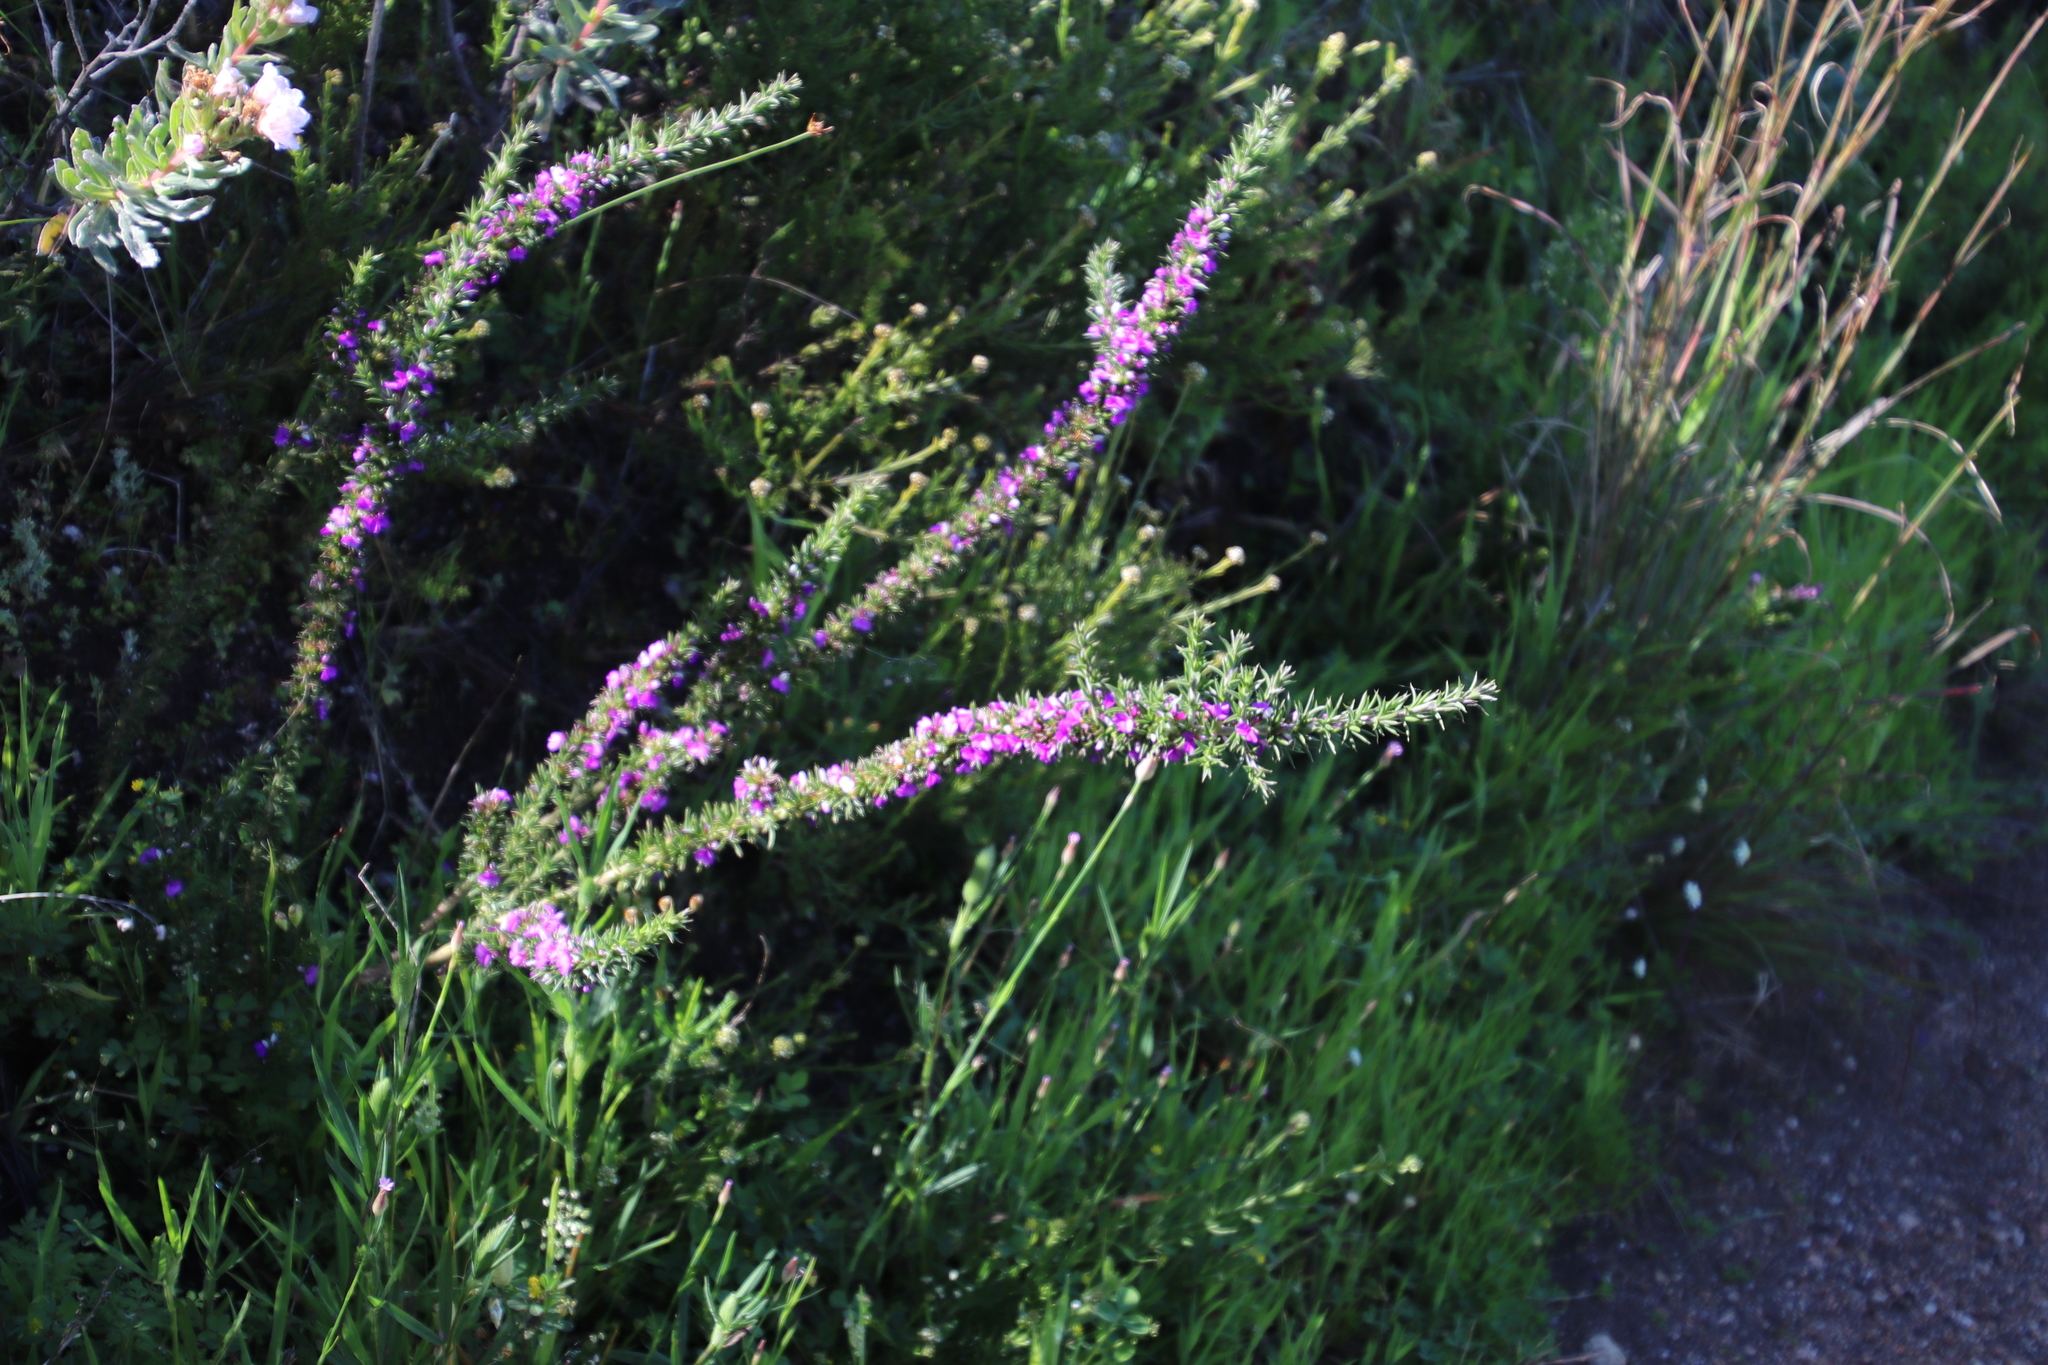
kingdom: Plantae
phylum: Tracheophyta
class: Magnoliopsida
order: Fabales
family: Polygalaceae
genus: Muraltia
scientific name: Muraltia heisteria
